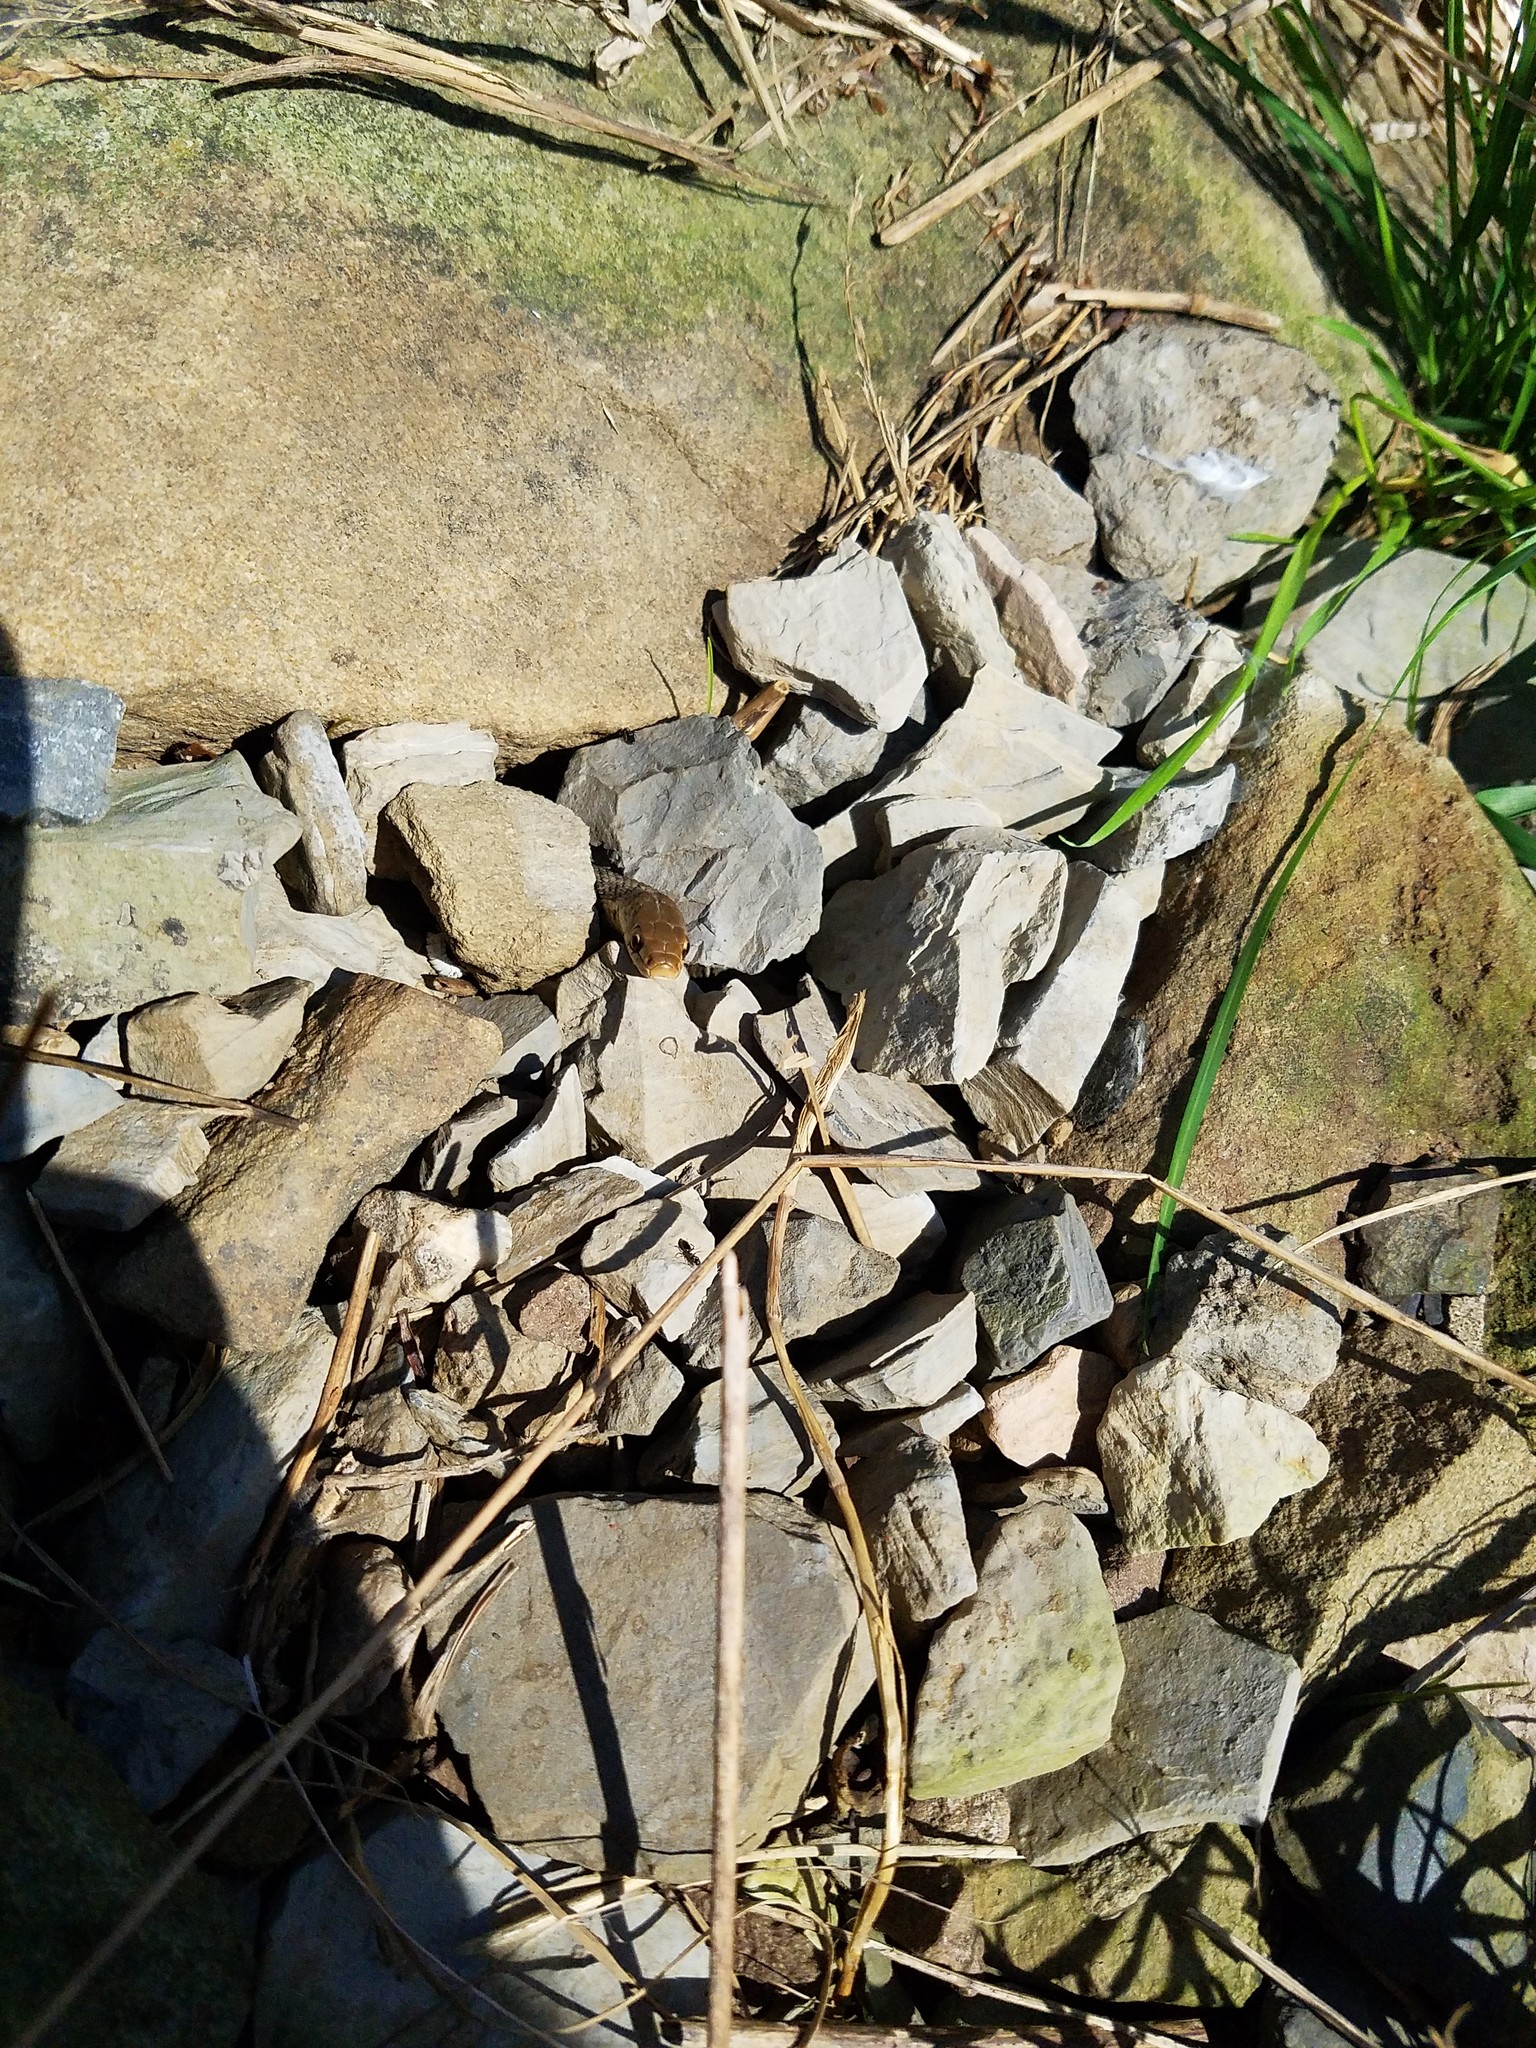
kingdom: Animalia
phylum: Chordata
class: Squamata
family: Colubridae
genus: Thamnophis
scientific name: Thamnophis sirtalis
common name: Common garter snake
